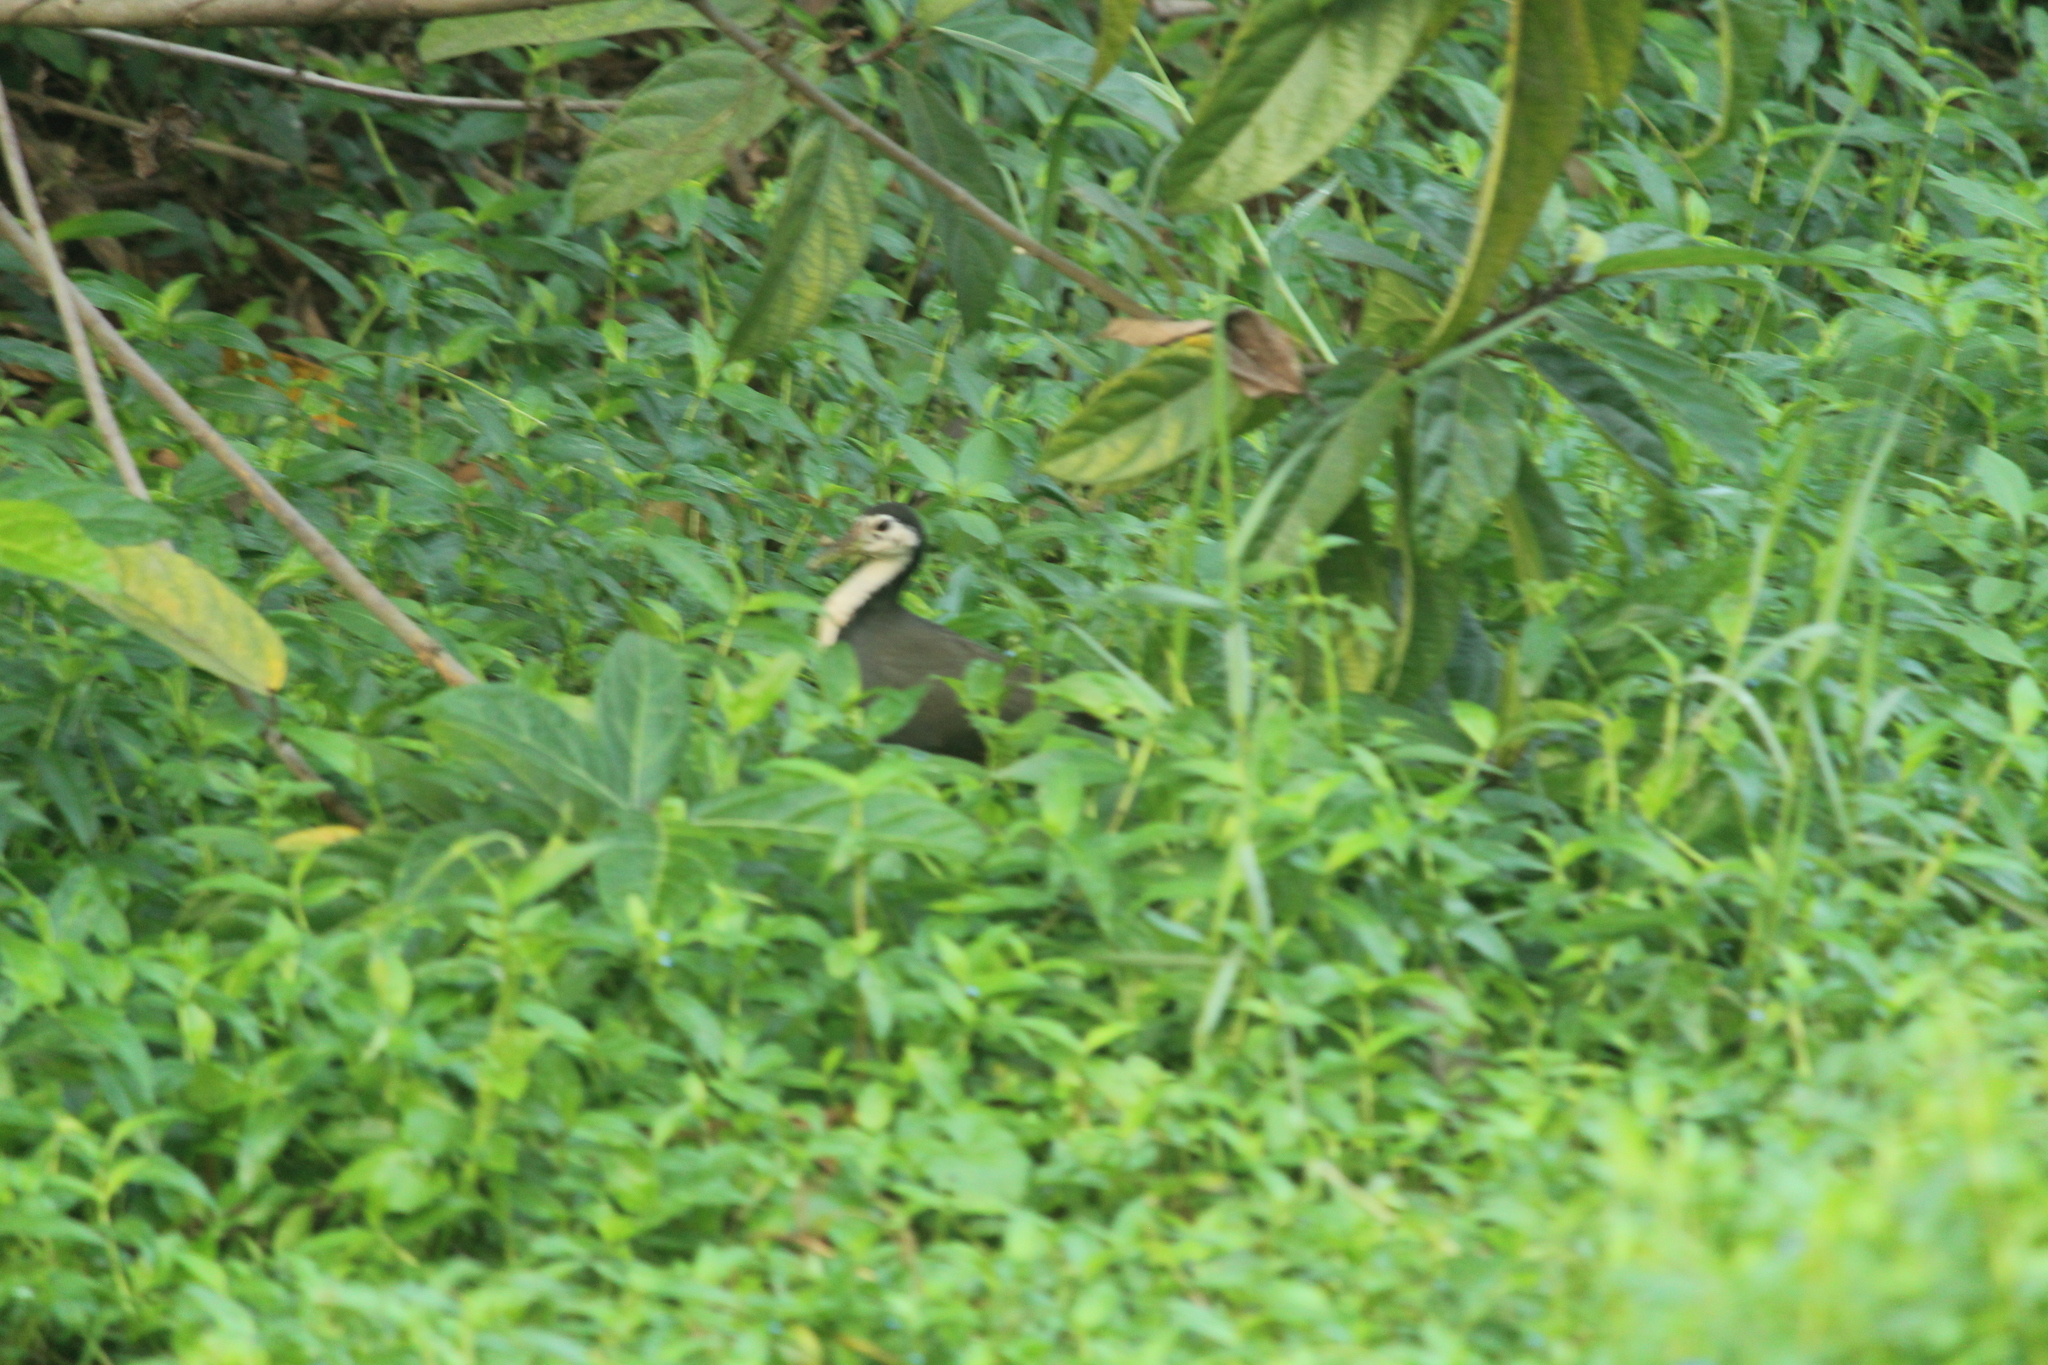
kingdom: Animalia
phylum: Chordata
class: Aves
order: Gruiformes
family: Rallidae
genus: Amaurornis
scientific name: Amaurornis phoenicurus
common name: White-breasted waterhen
